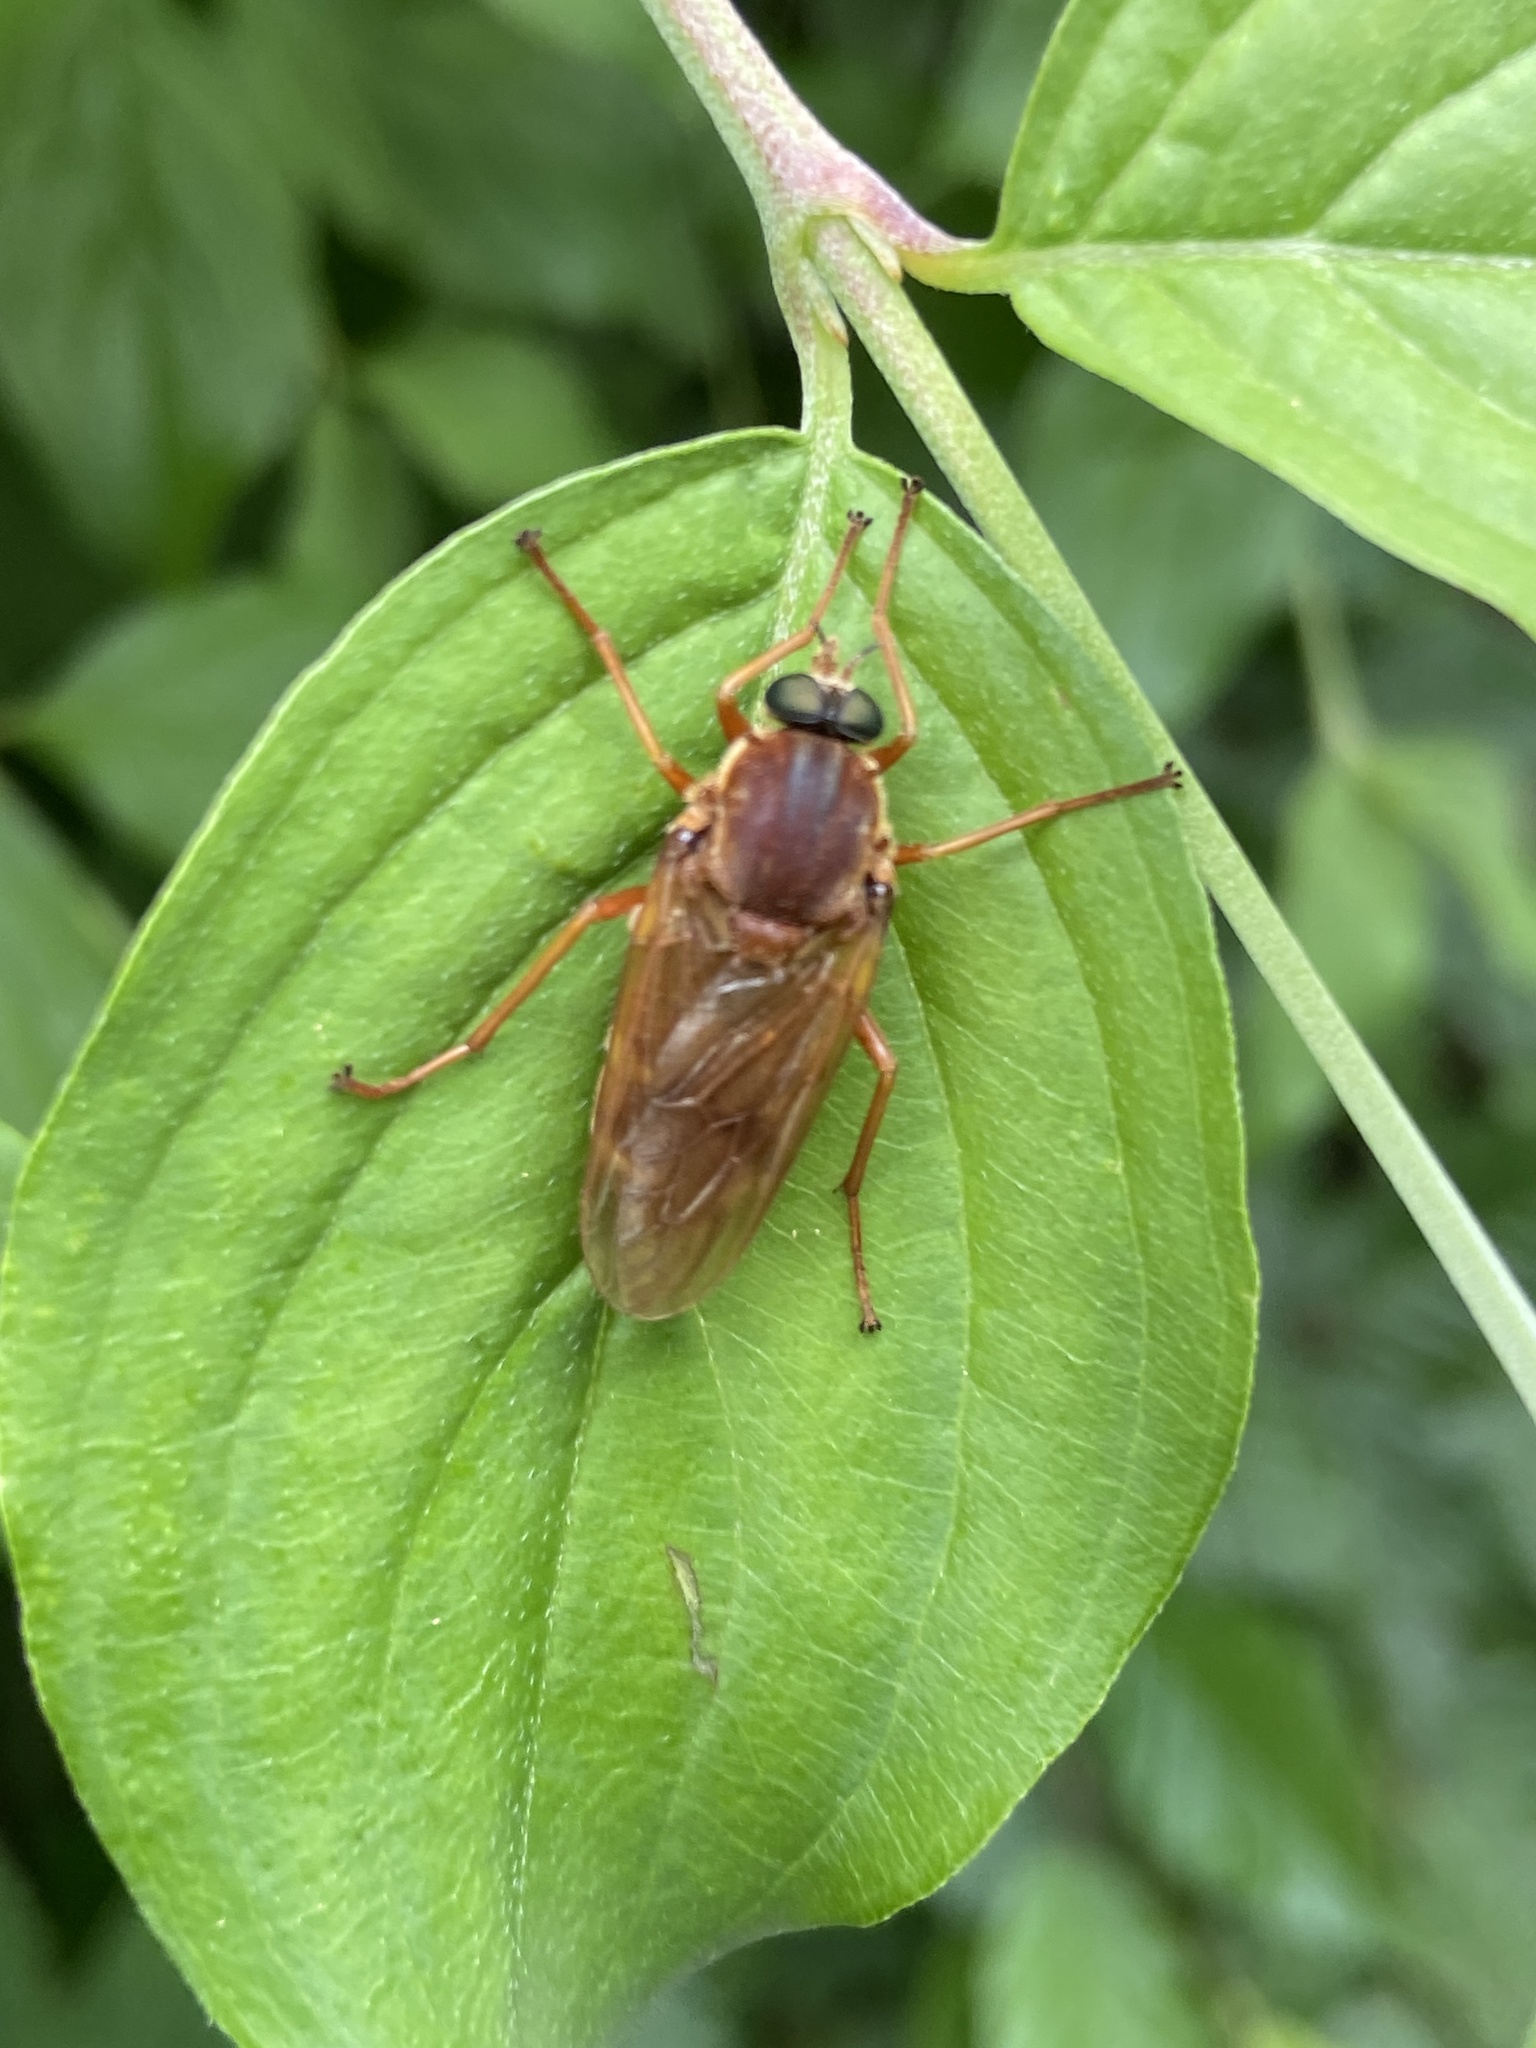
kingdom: Animalia
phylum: Arthropoda
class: Insecta
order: Diptera
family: Xylophagidae
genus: Coenomyia
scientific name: Coenomyia ferruginea
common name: Stink fly
